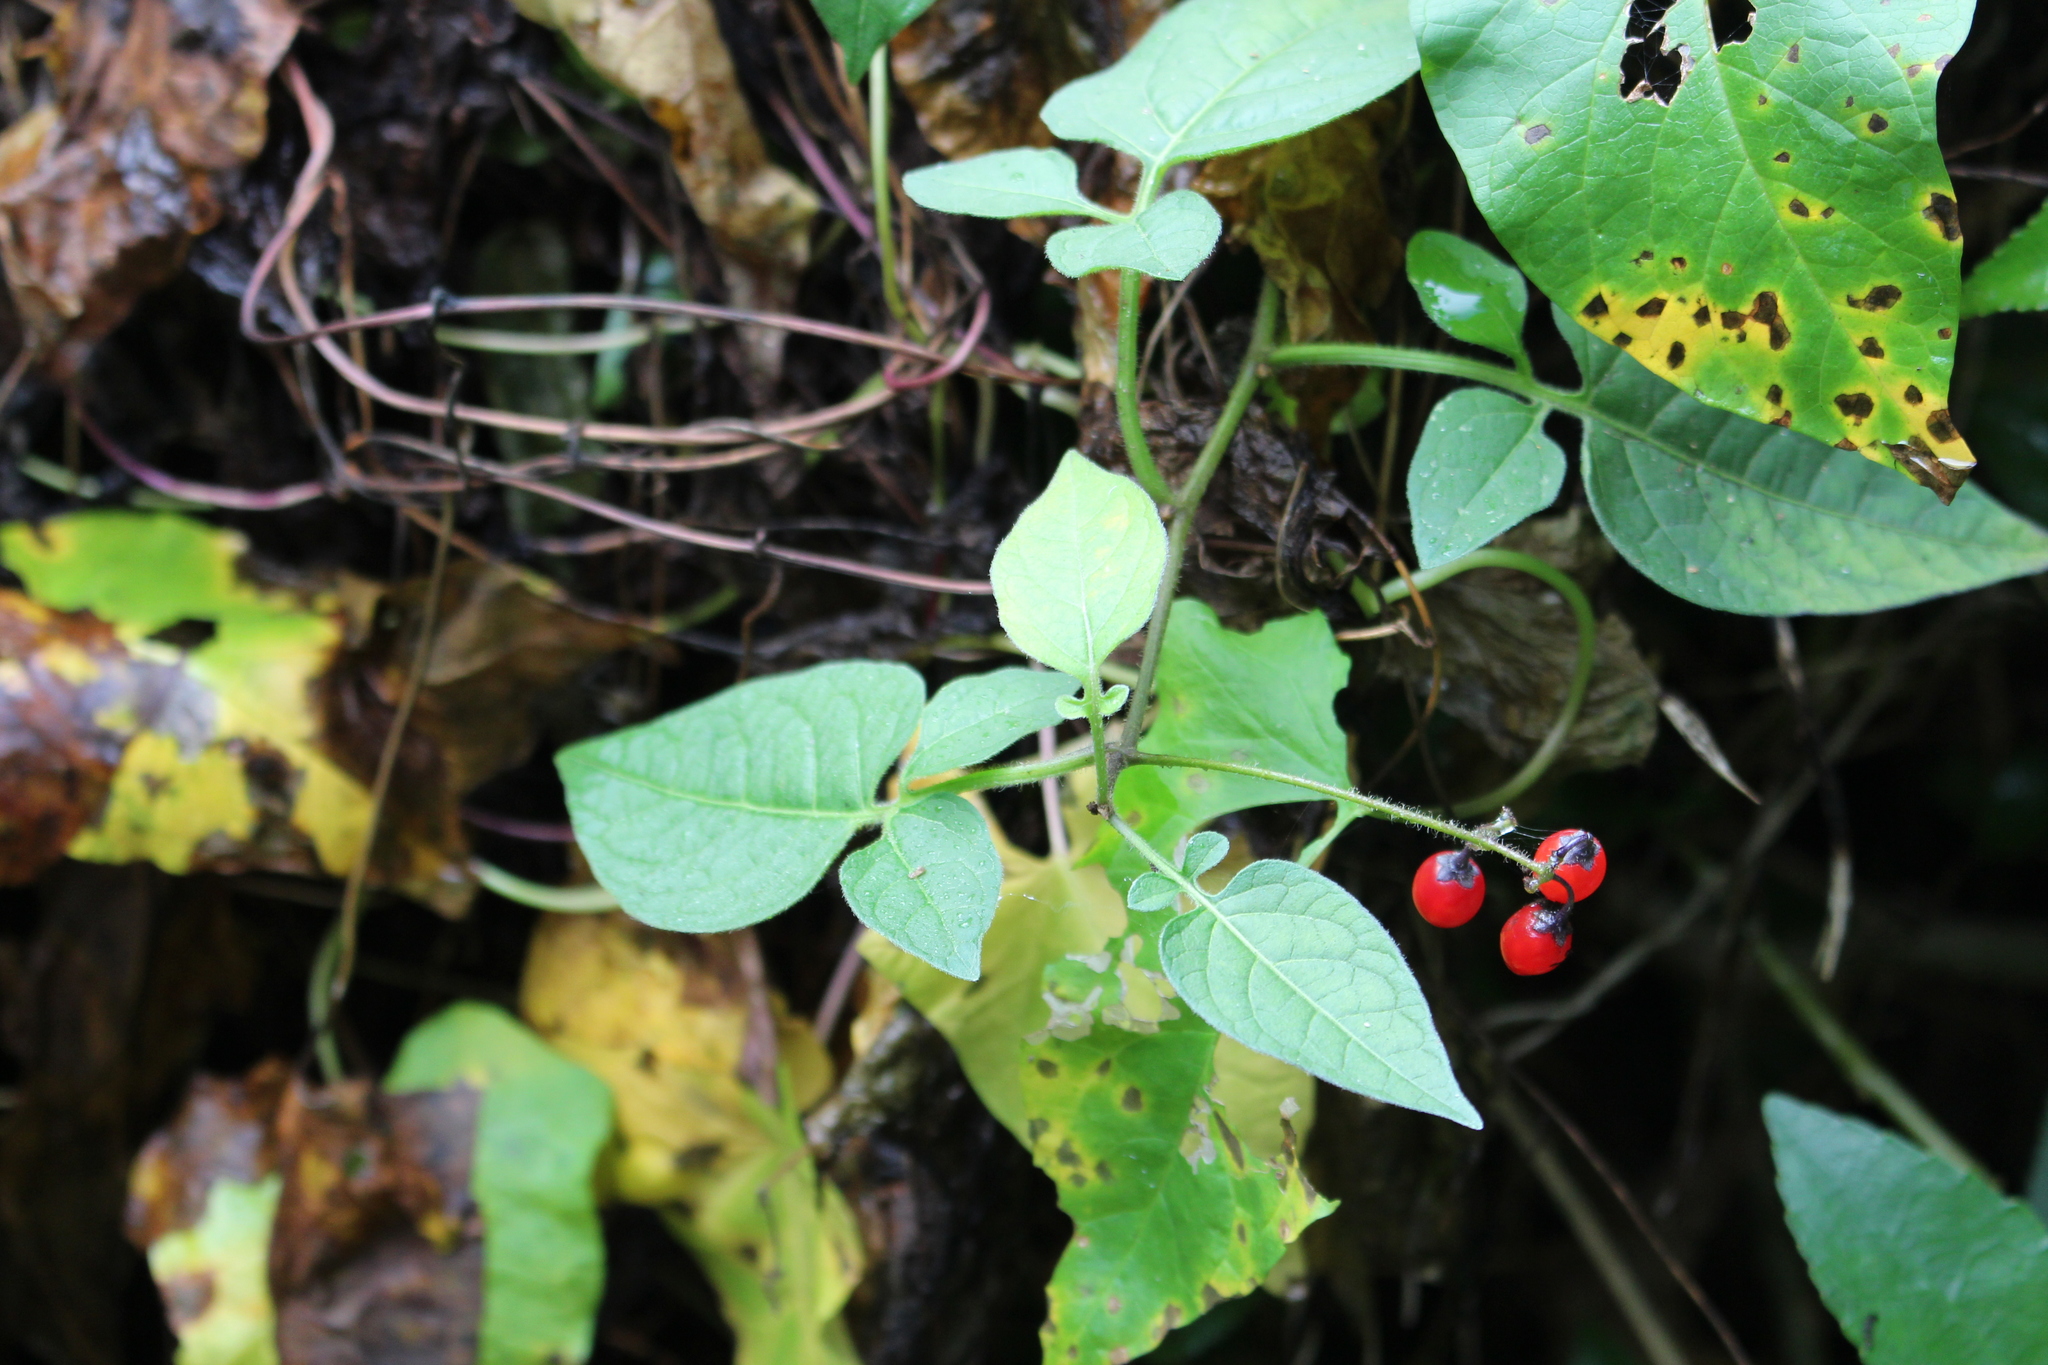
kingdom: Plantae
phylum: Tracheophyta
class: Magnoliopsida
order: Solanales
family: Solanaceae
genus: Solanum
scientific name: Solanum dulcamara
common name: Climbing nightshade
